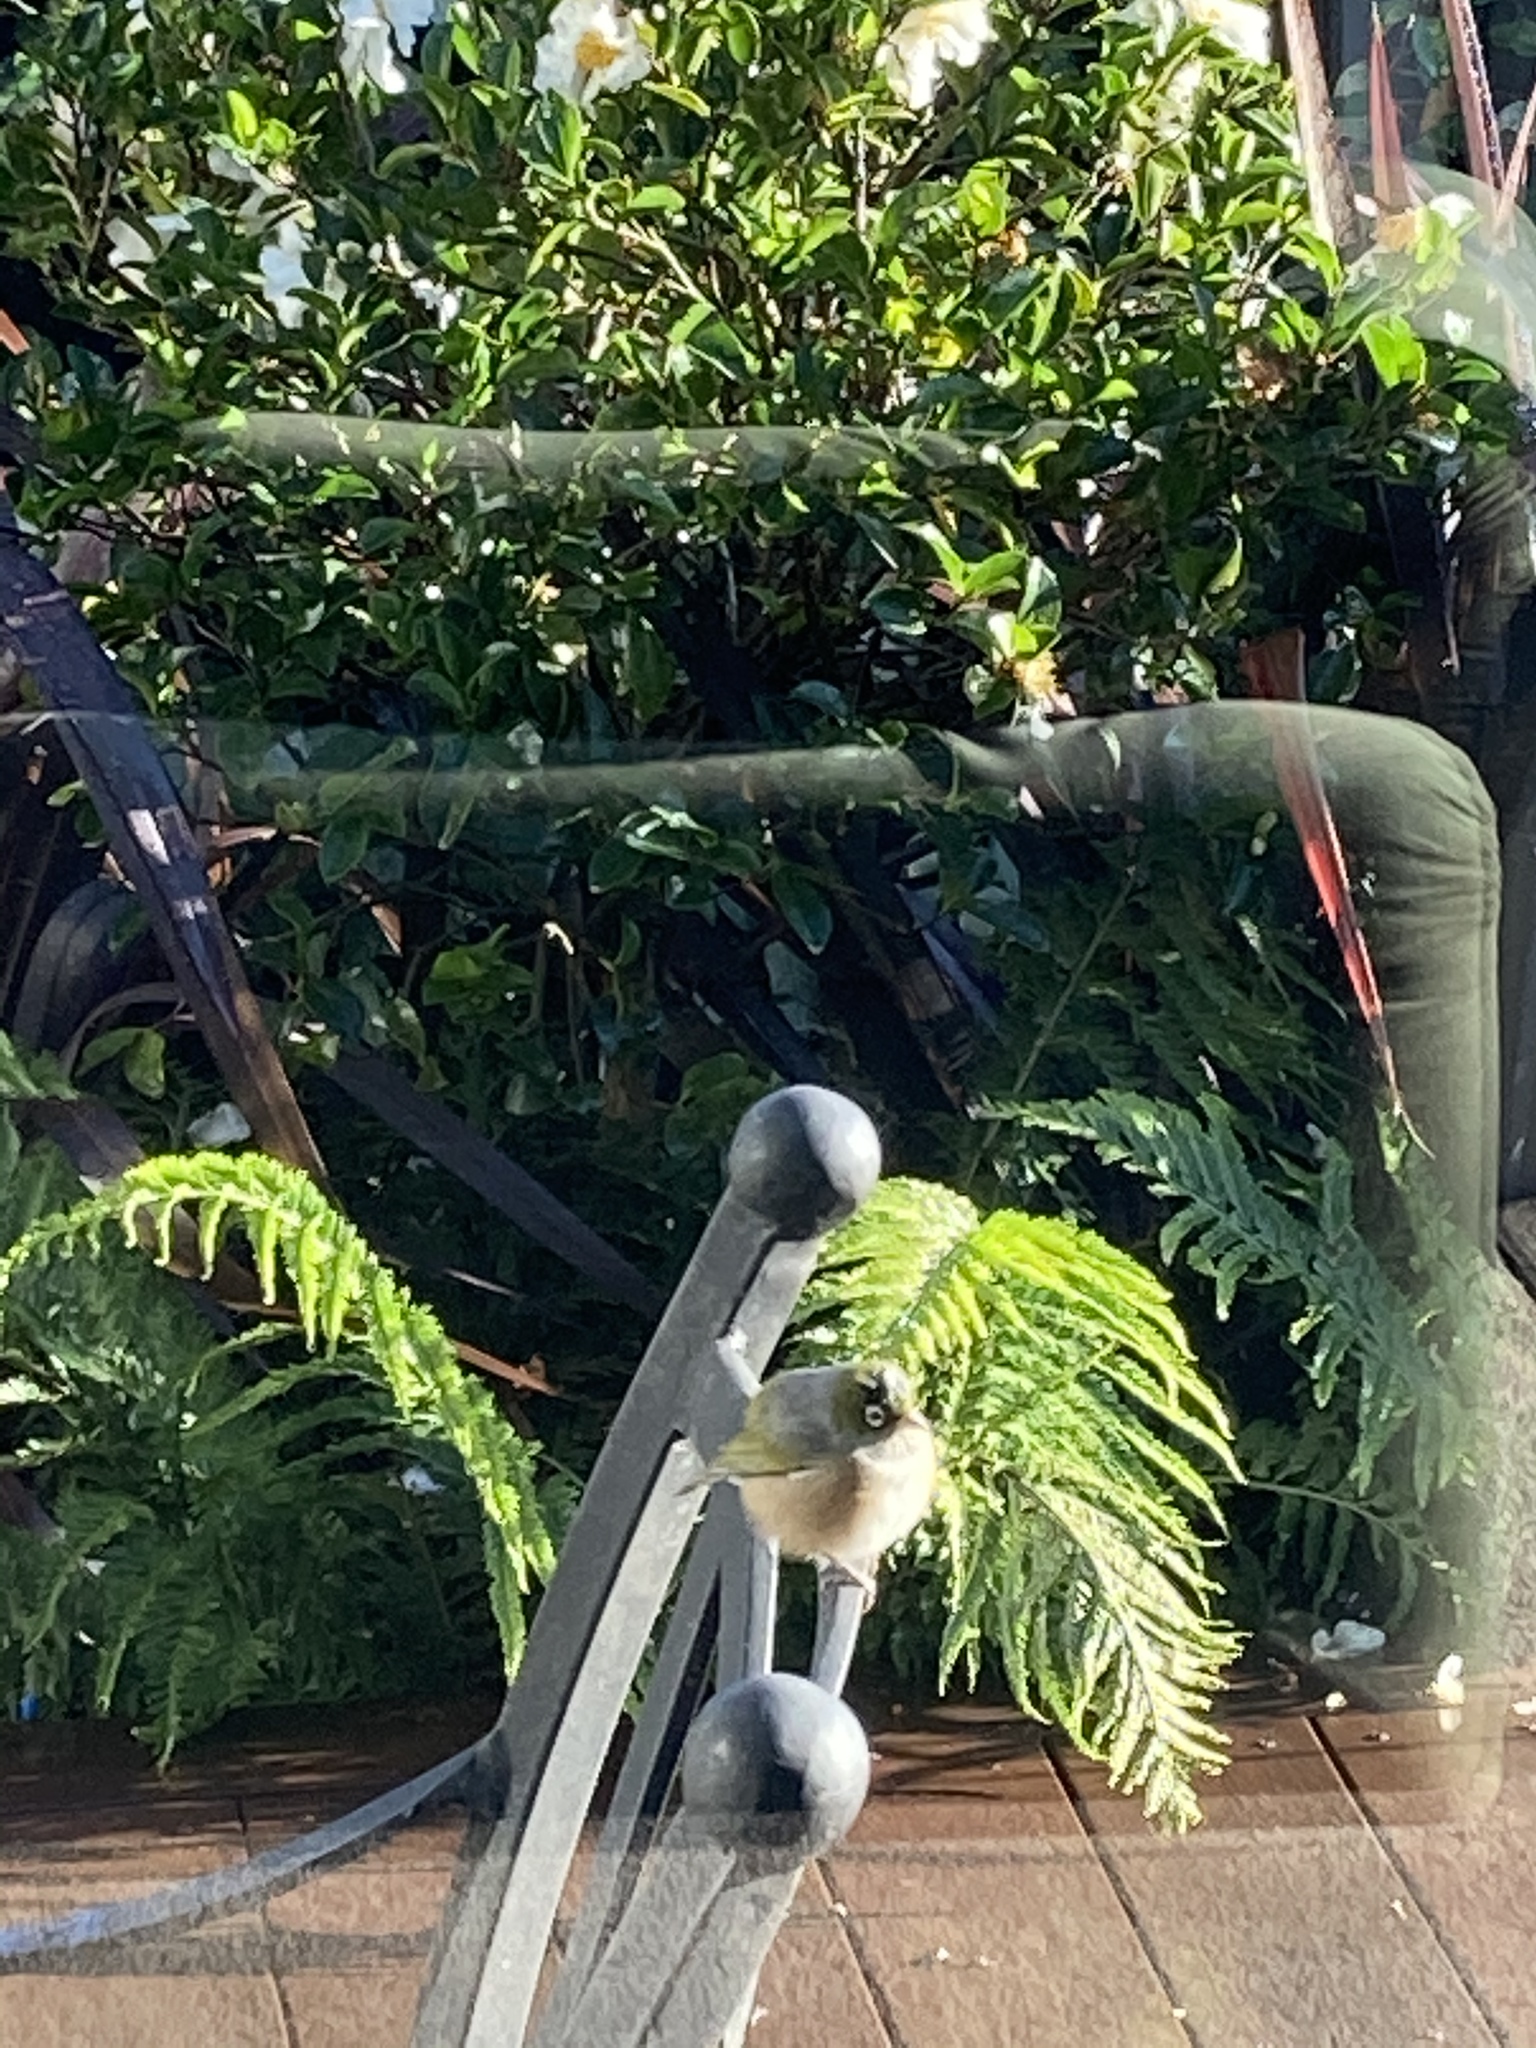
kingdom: Animalia
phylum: Chordata
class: Aves
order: Passeriformes
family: Zosteropidae
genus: Zosterops
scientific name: Zosterops lateralis
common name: Silvereye
